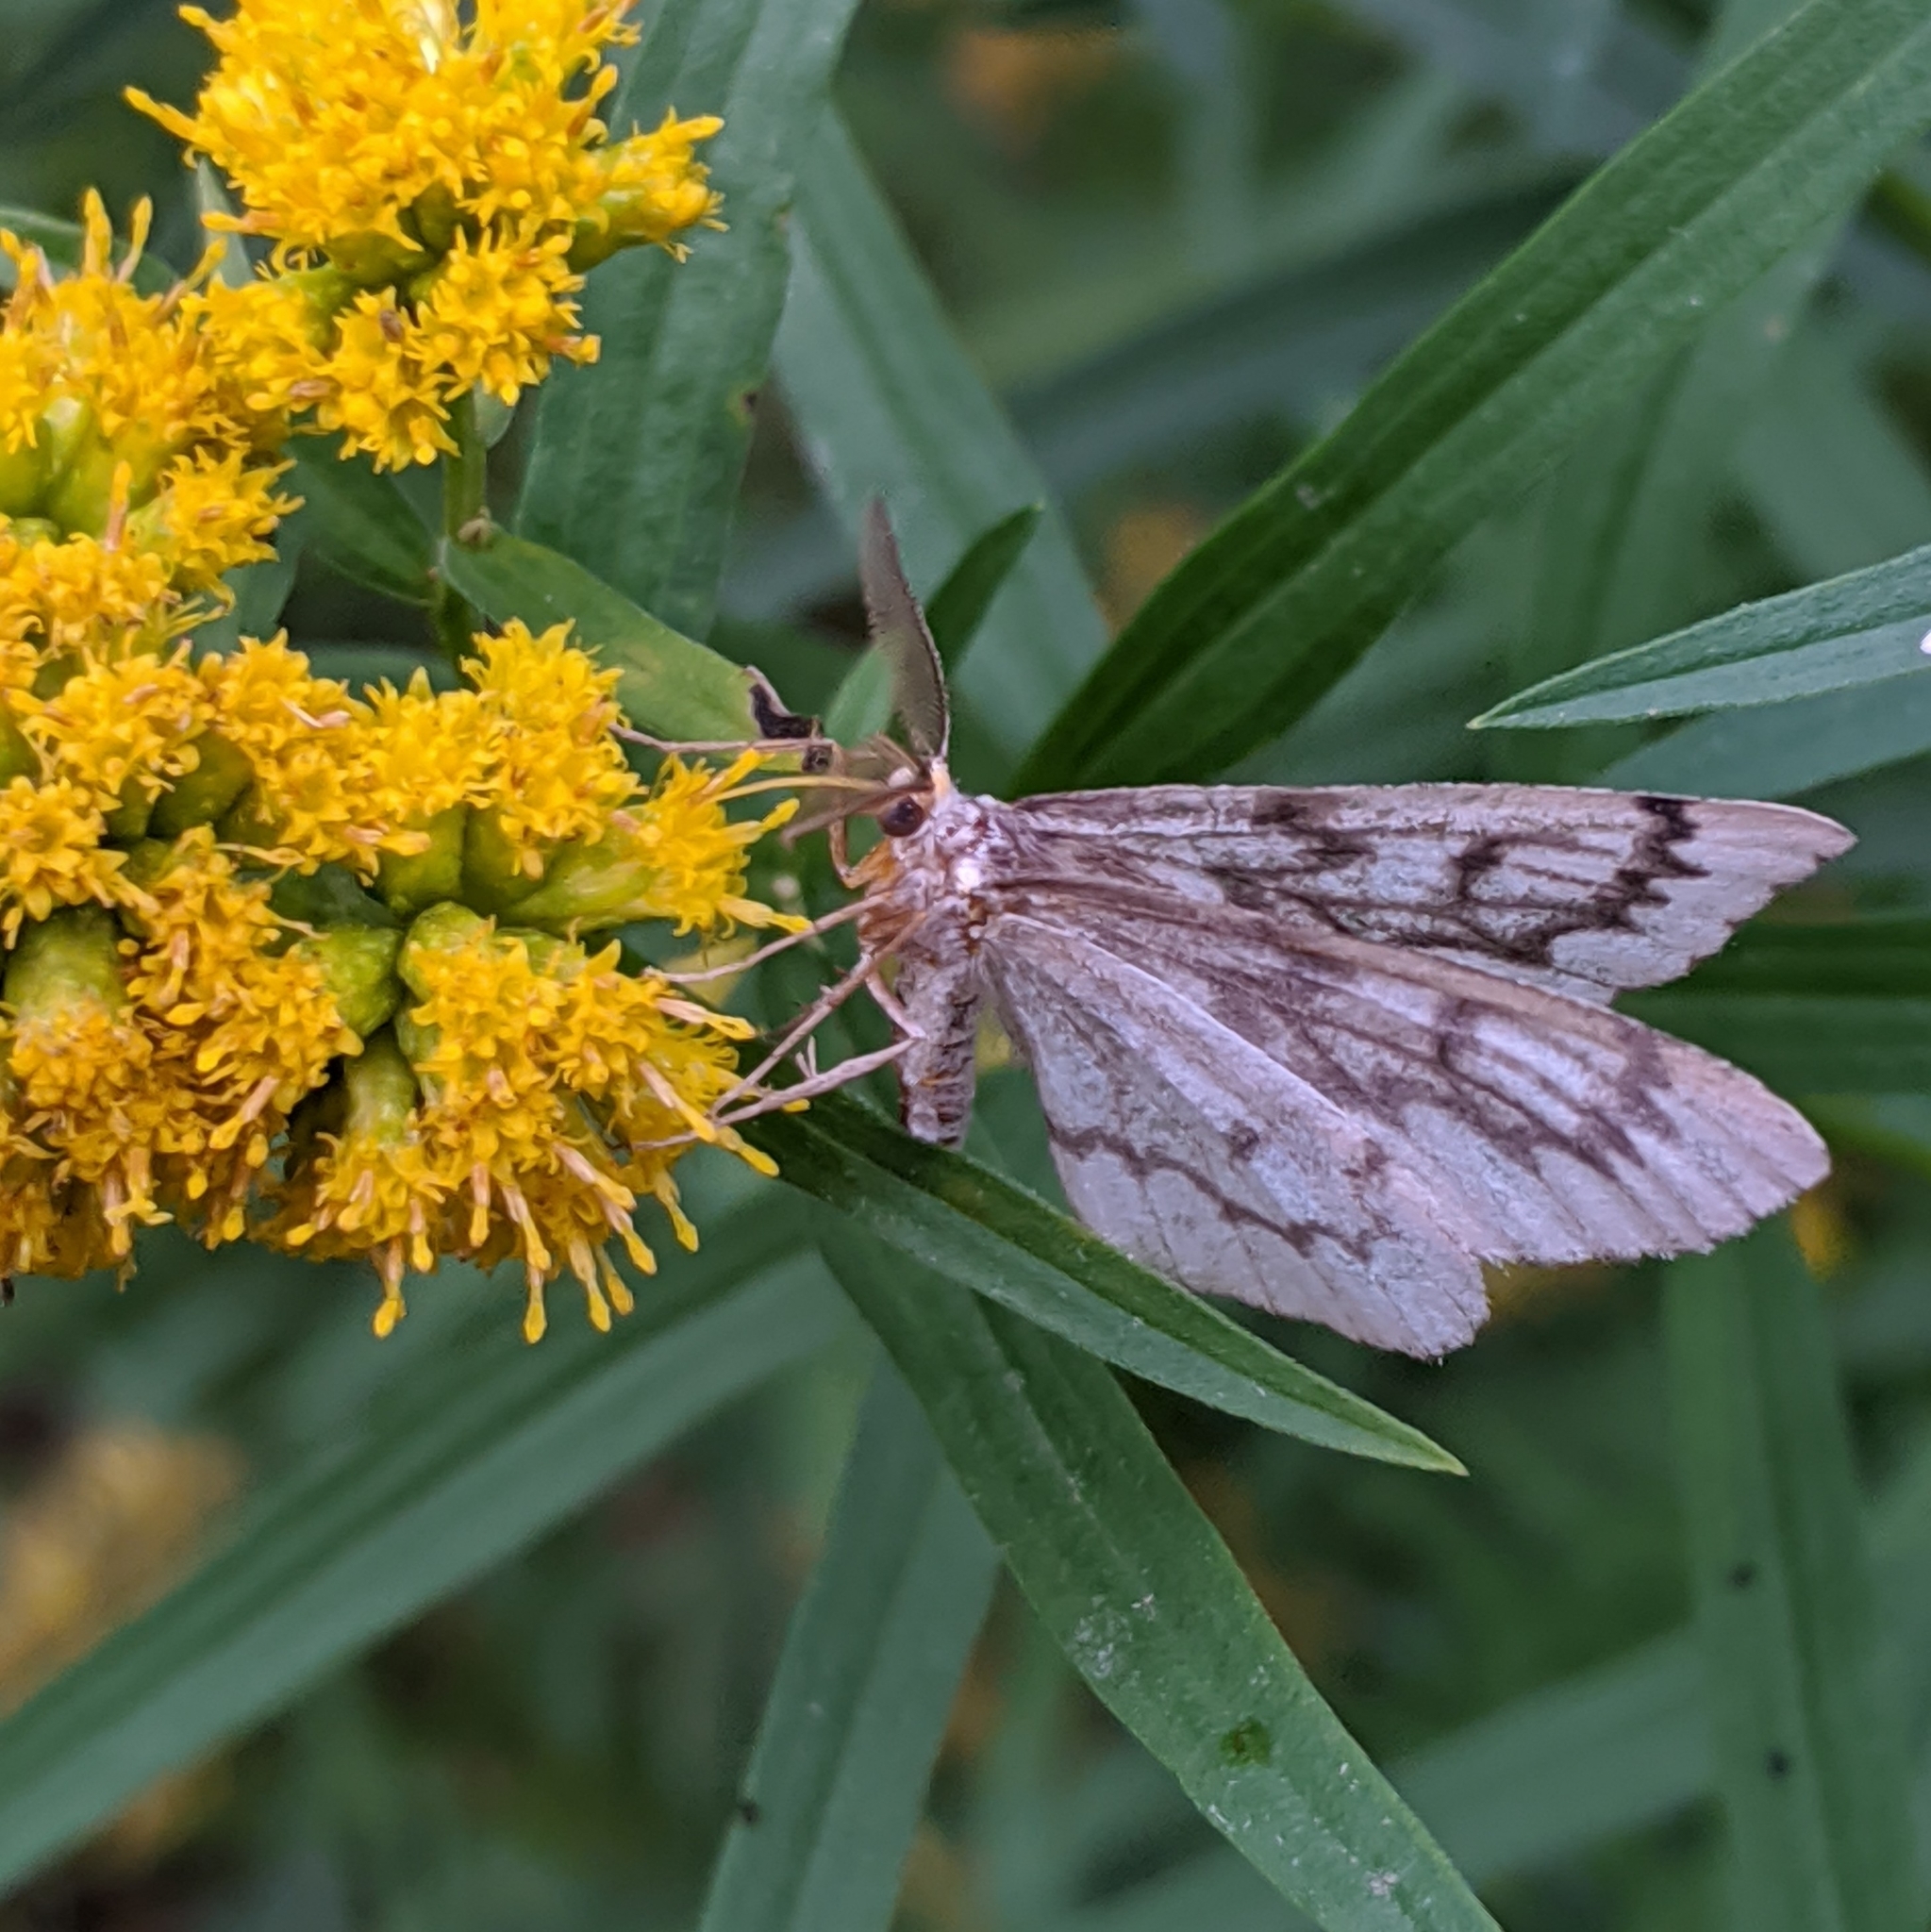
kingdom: Animalia
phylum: Arthropoda
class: Insecta
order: Lepidoptera
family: Geometridae
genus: Nepytia
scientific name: Nepytia phantasmaria
